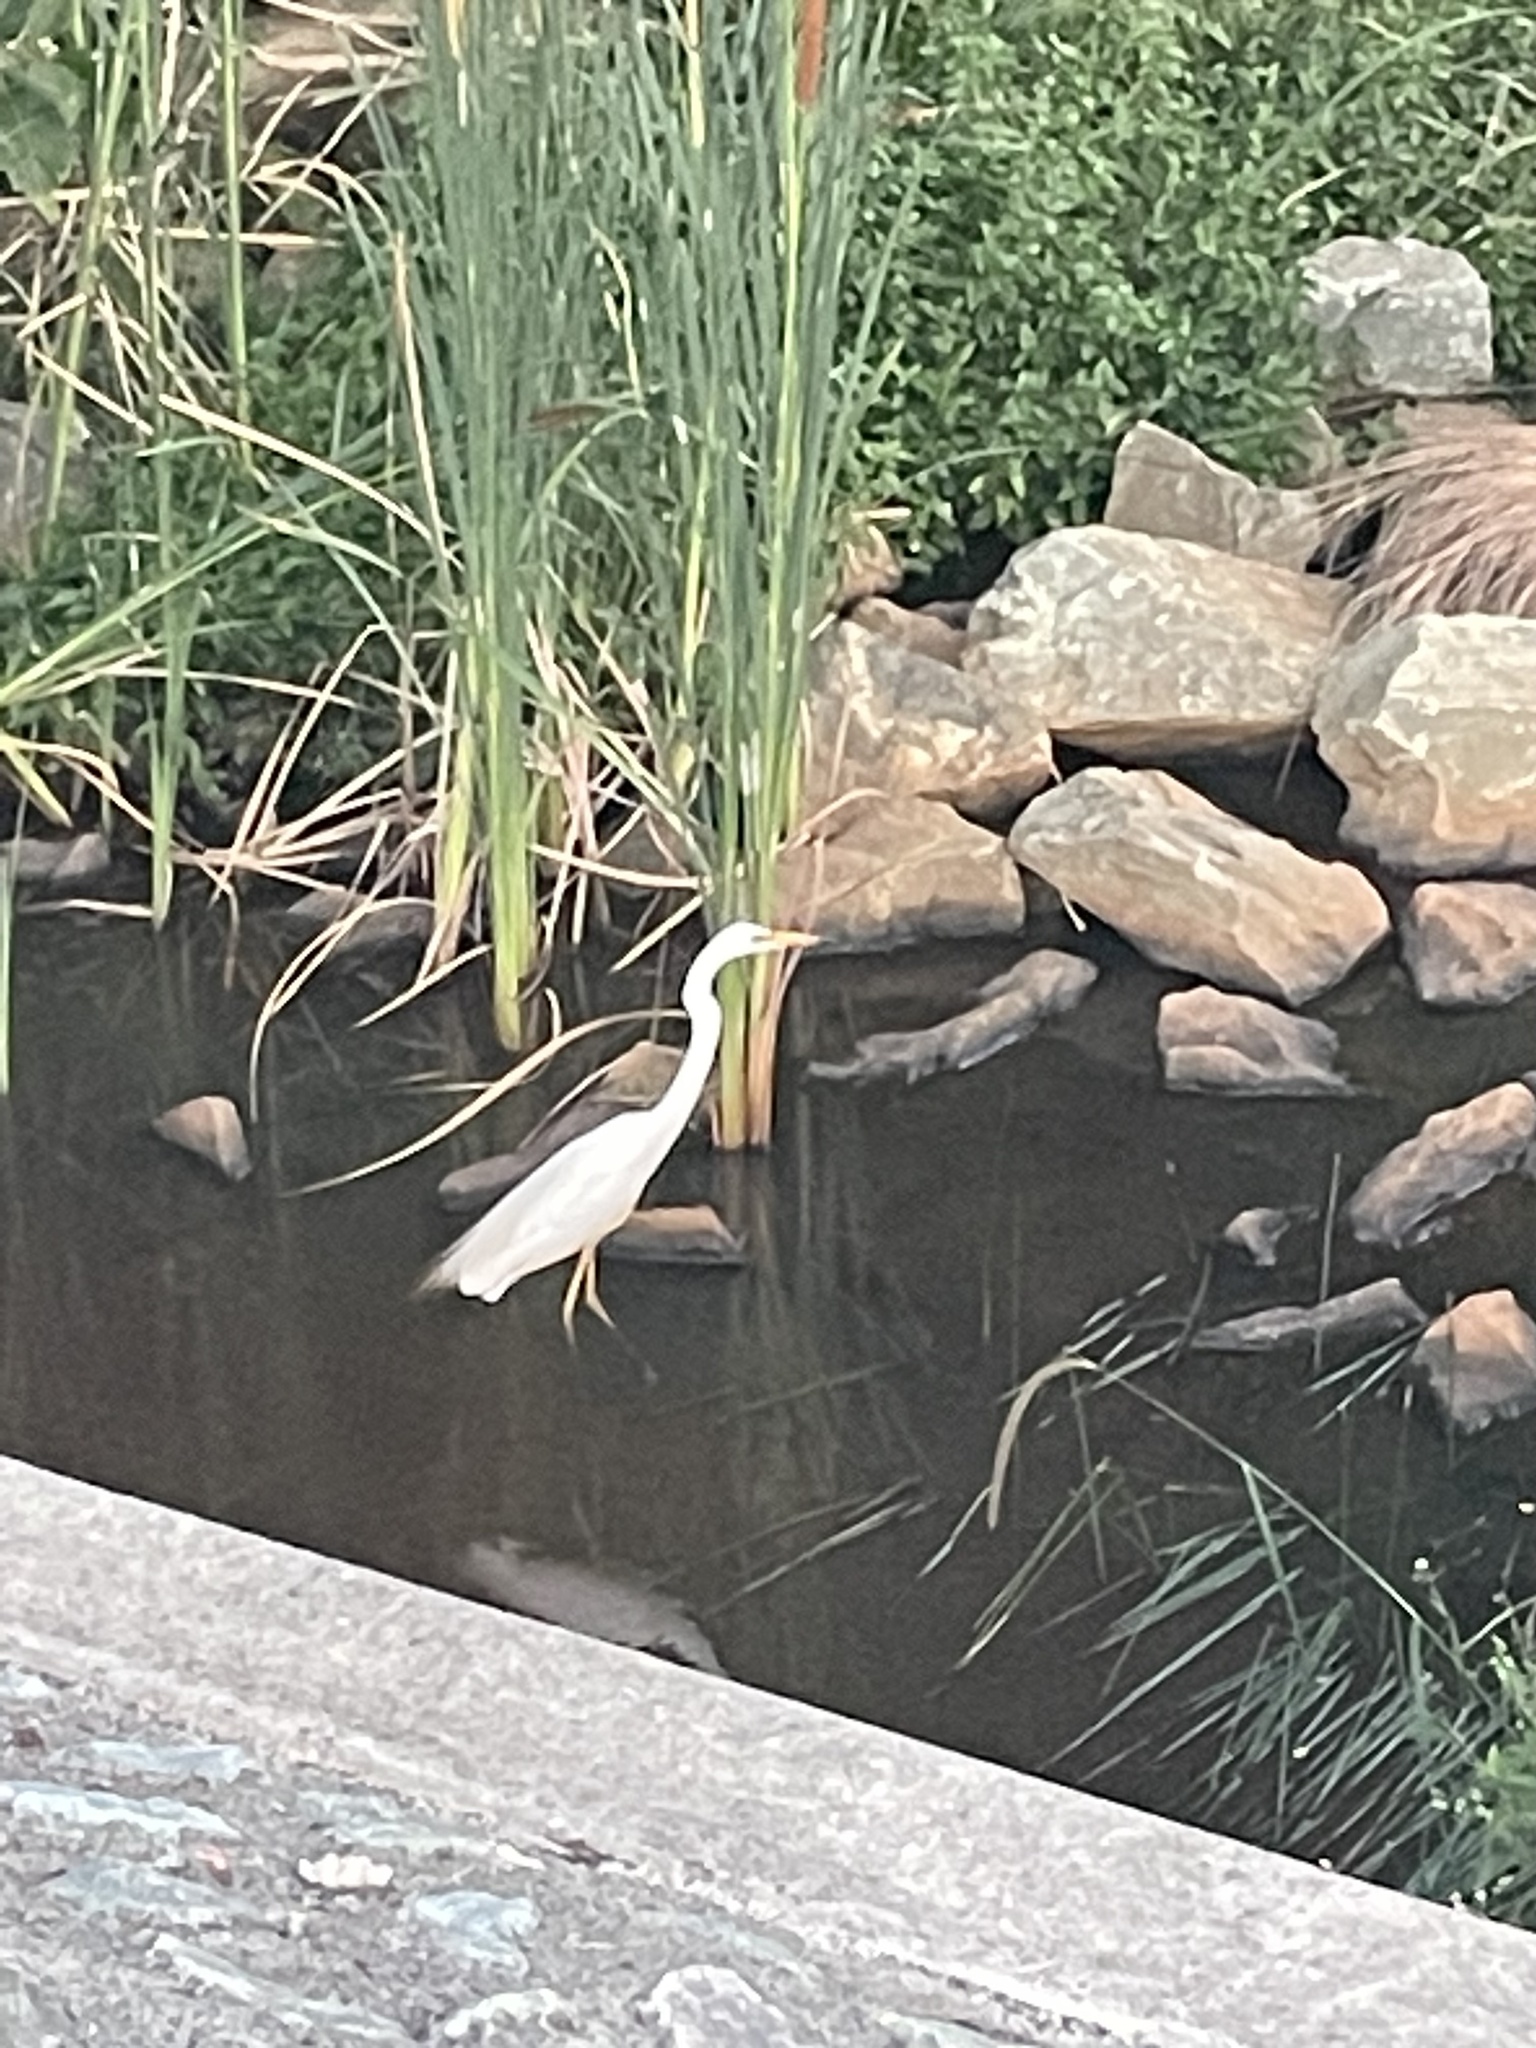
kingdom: Animalia
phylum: Chordata
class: Aves
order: Pelecaniformes
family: Ardeidae
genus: Ardea
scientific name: Ardea modesta
